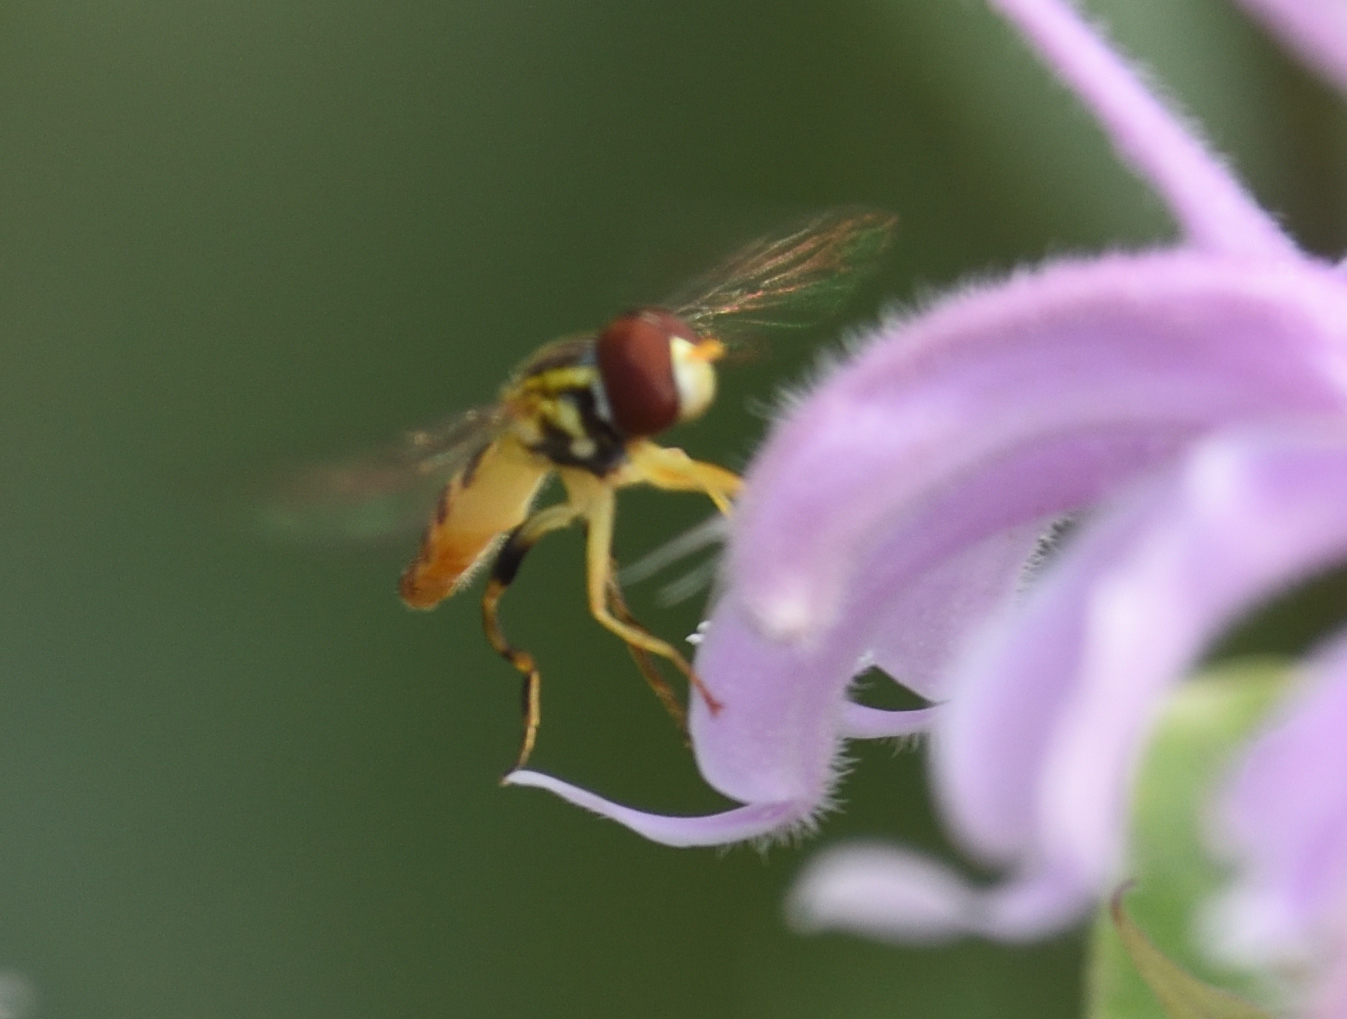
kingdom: Animalia
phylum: Arthropoda
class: Insecta
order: Diptera
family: Syrphidae
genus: Toxomerus
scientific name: Toxomerus geminatus
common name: Eastern calligrapher
